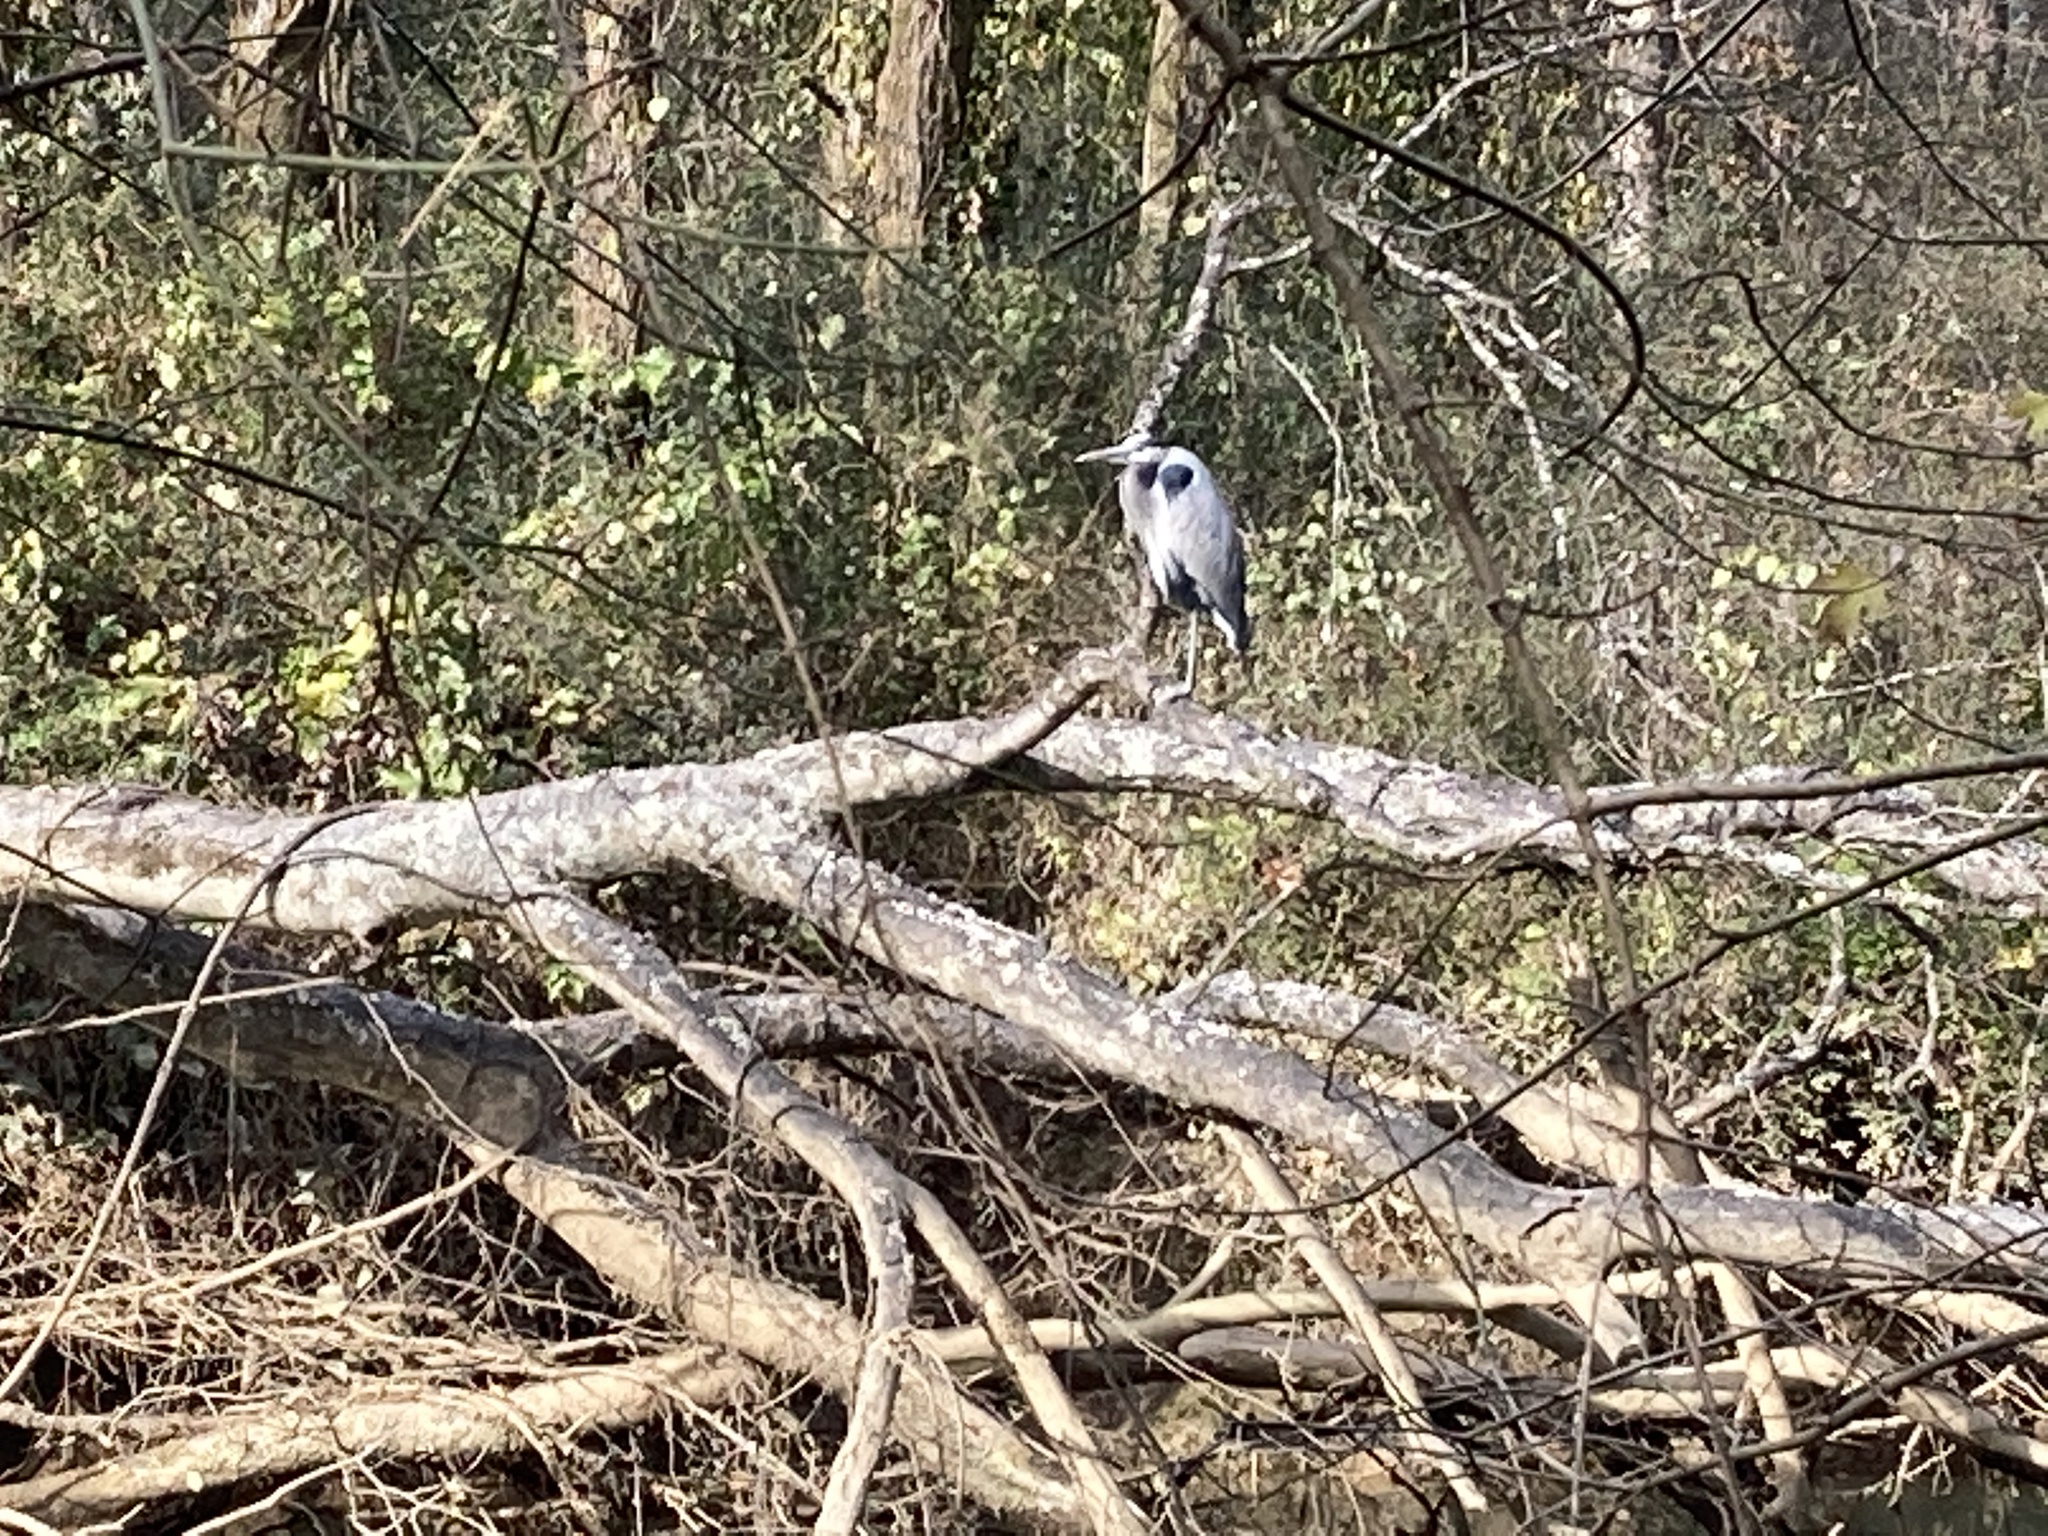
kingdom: Animalia
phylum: Chordata
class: Aves
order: Pelecaniformes
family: Ardeidae
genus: Ardea
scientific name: Ardea herodias
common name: Great blue heron
